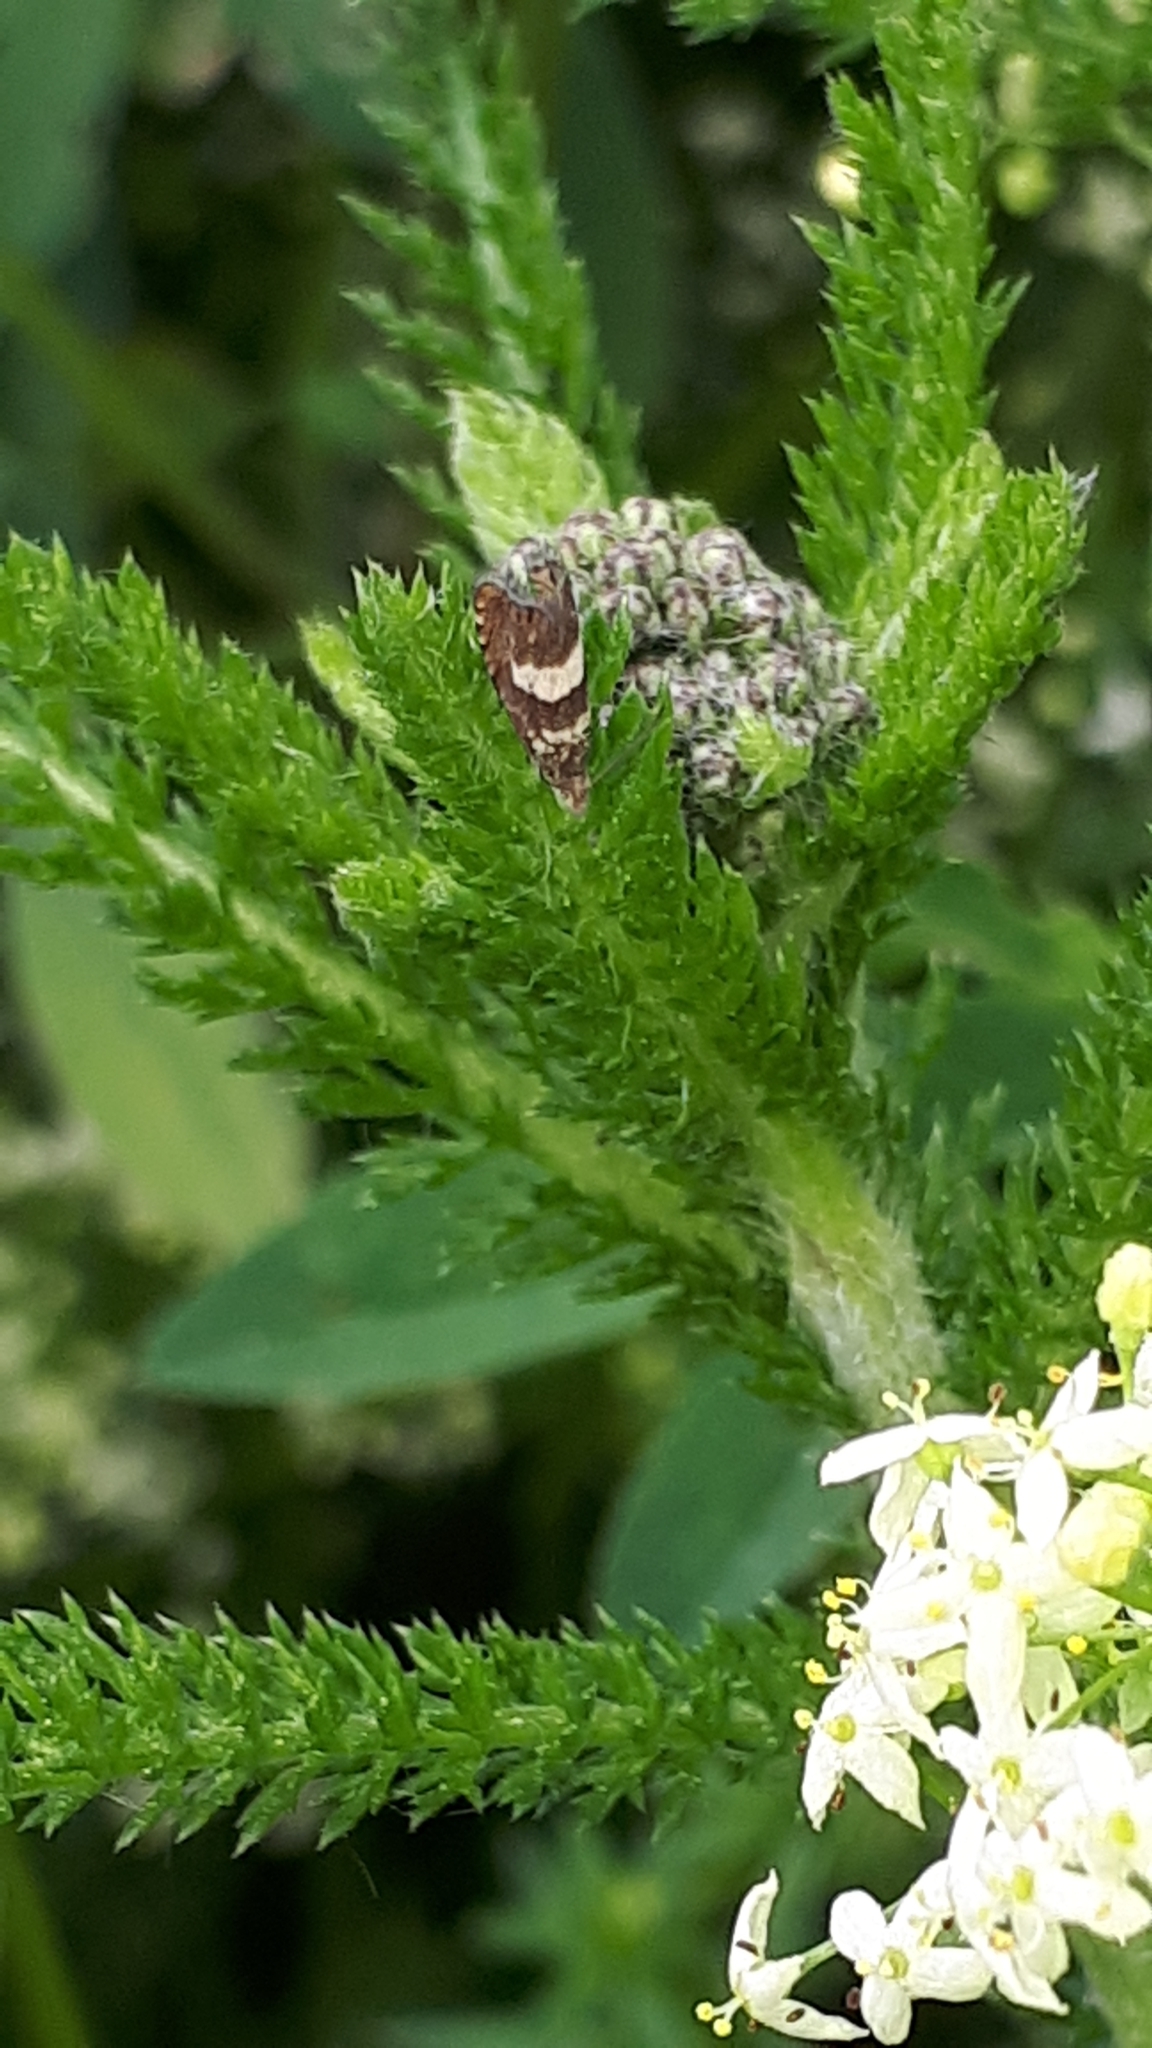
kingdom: Animalia
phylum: Arthropoda
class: Insecta
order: Lepidoptera
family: Tortricidae
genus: Dichrorampha
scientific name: Dichrorampha sequana
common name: Square-spot drill
